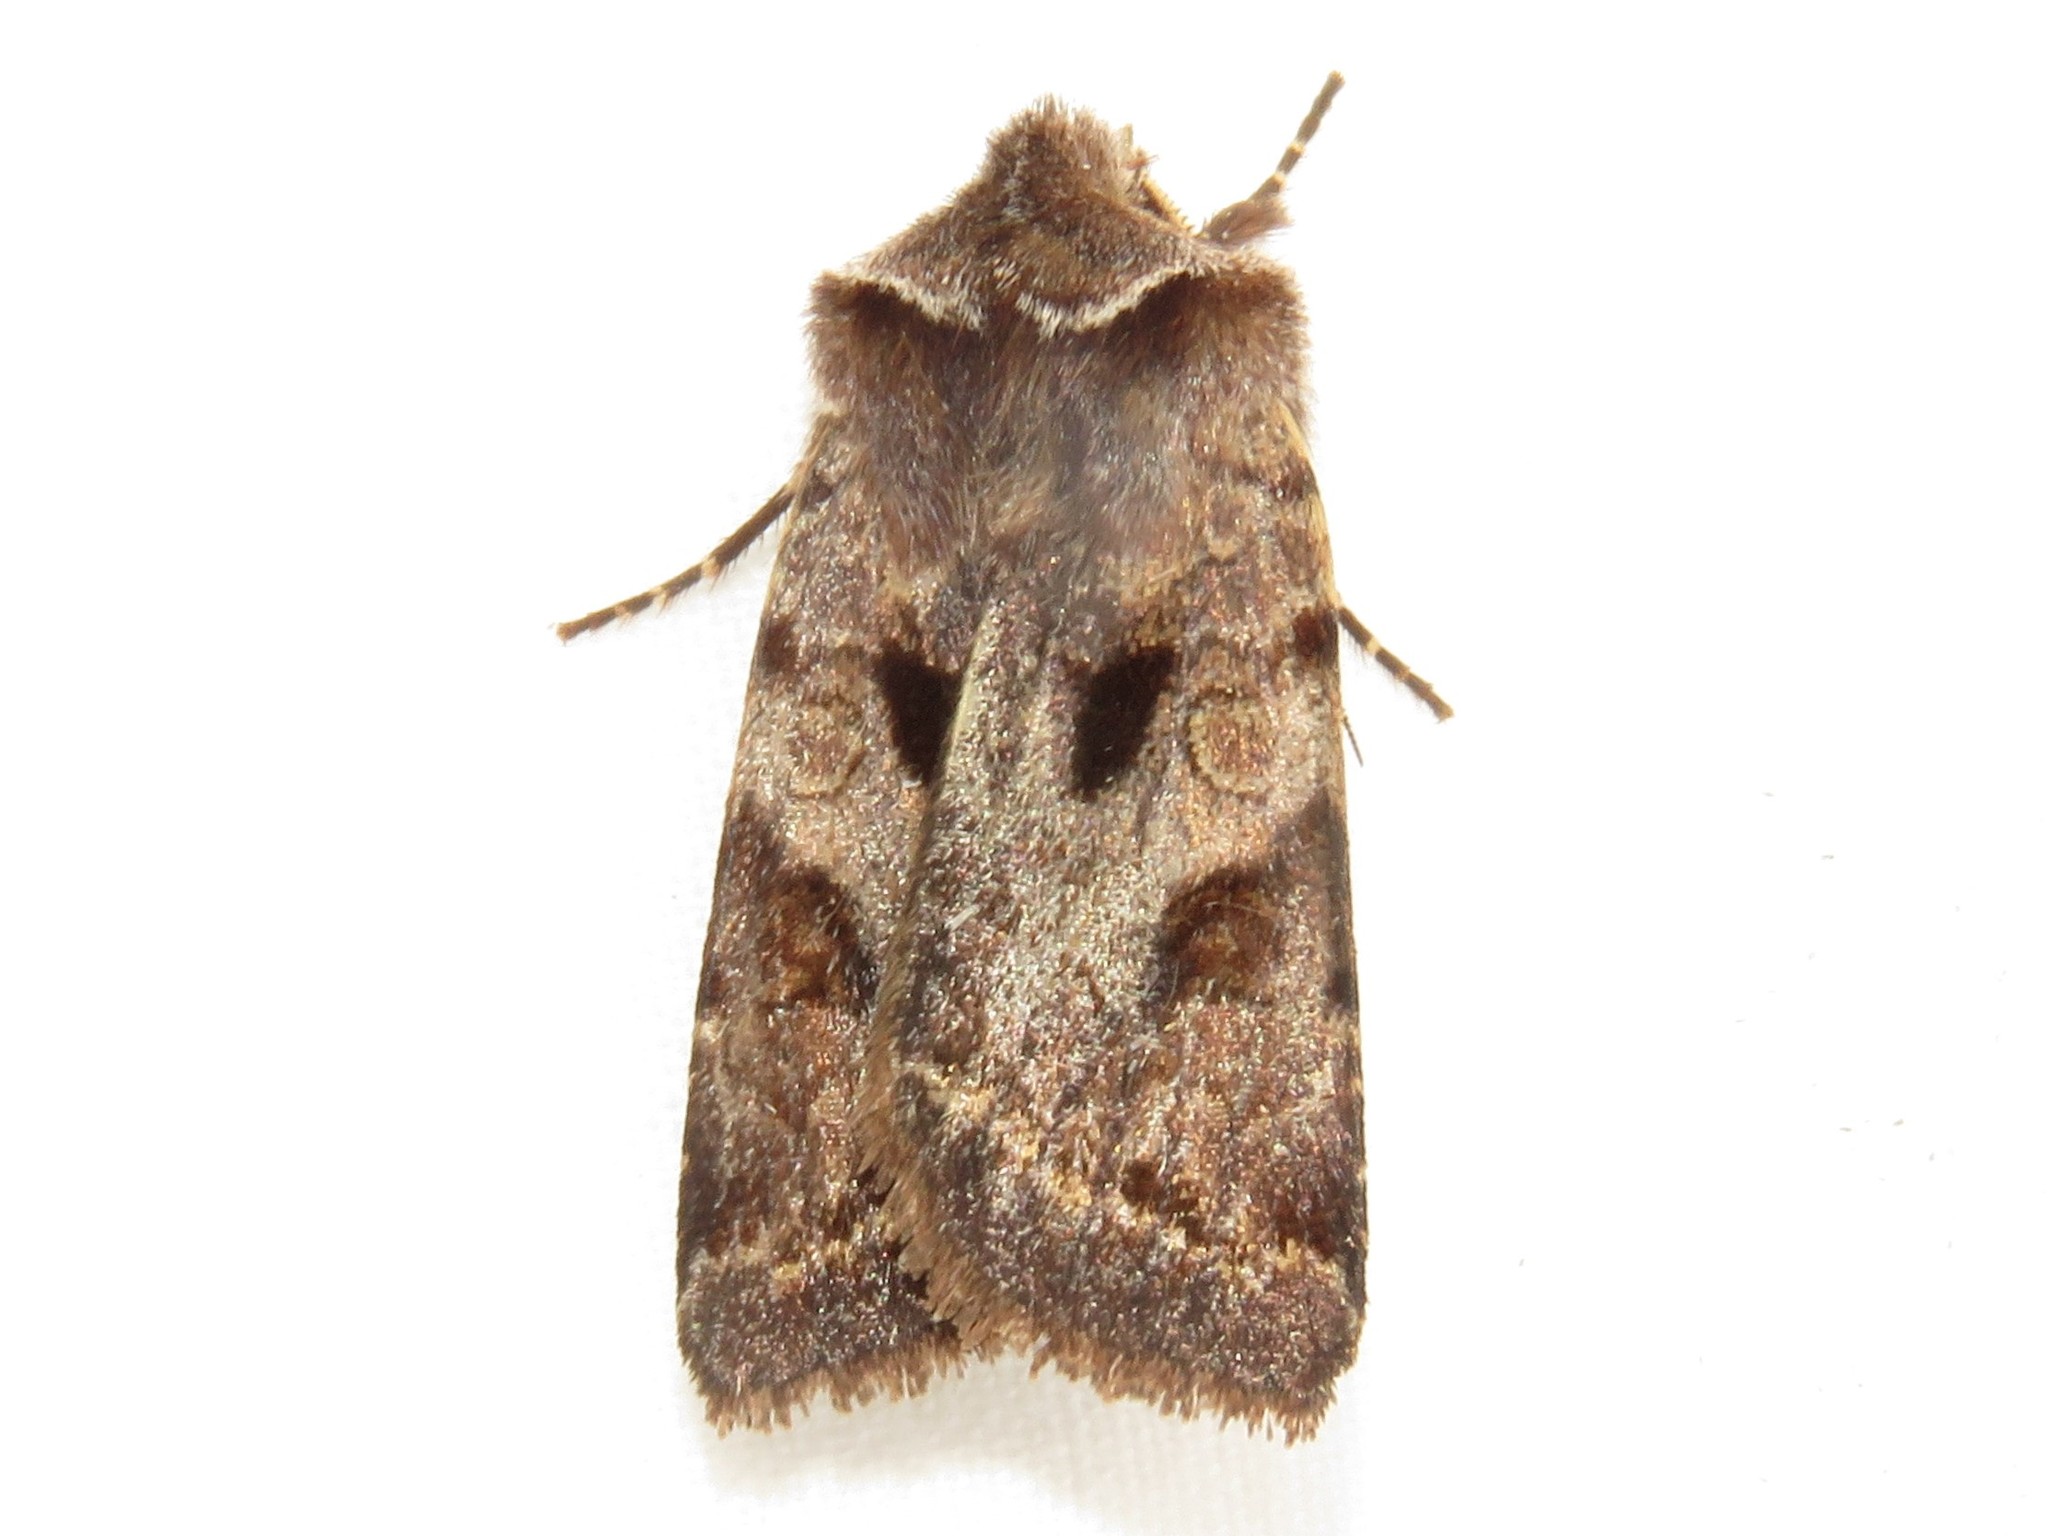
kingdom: Animalia
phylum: Arthropoda
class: Insecta
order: Lepidoptera
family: Noctuidae
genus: Cerastis
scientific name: Cerastis salicarum
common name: Willow dart
